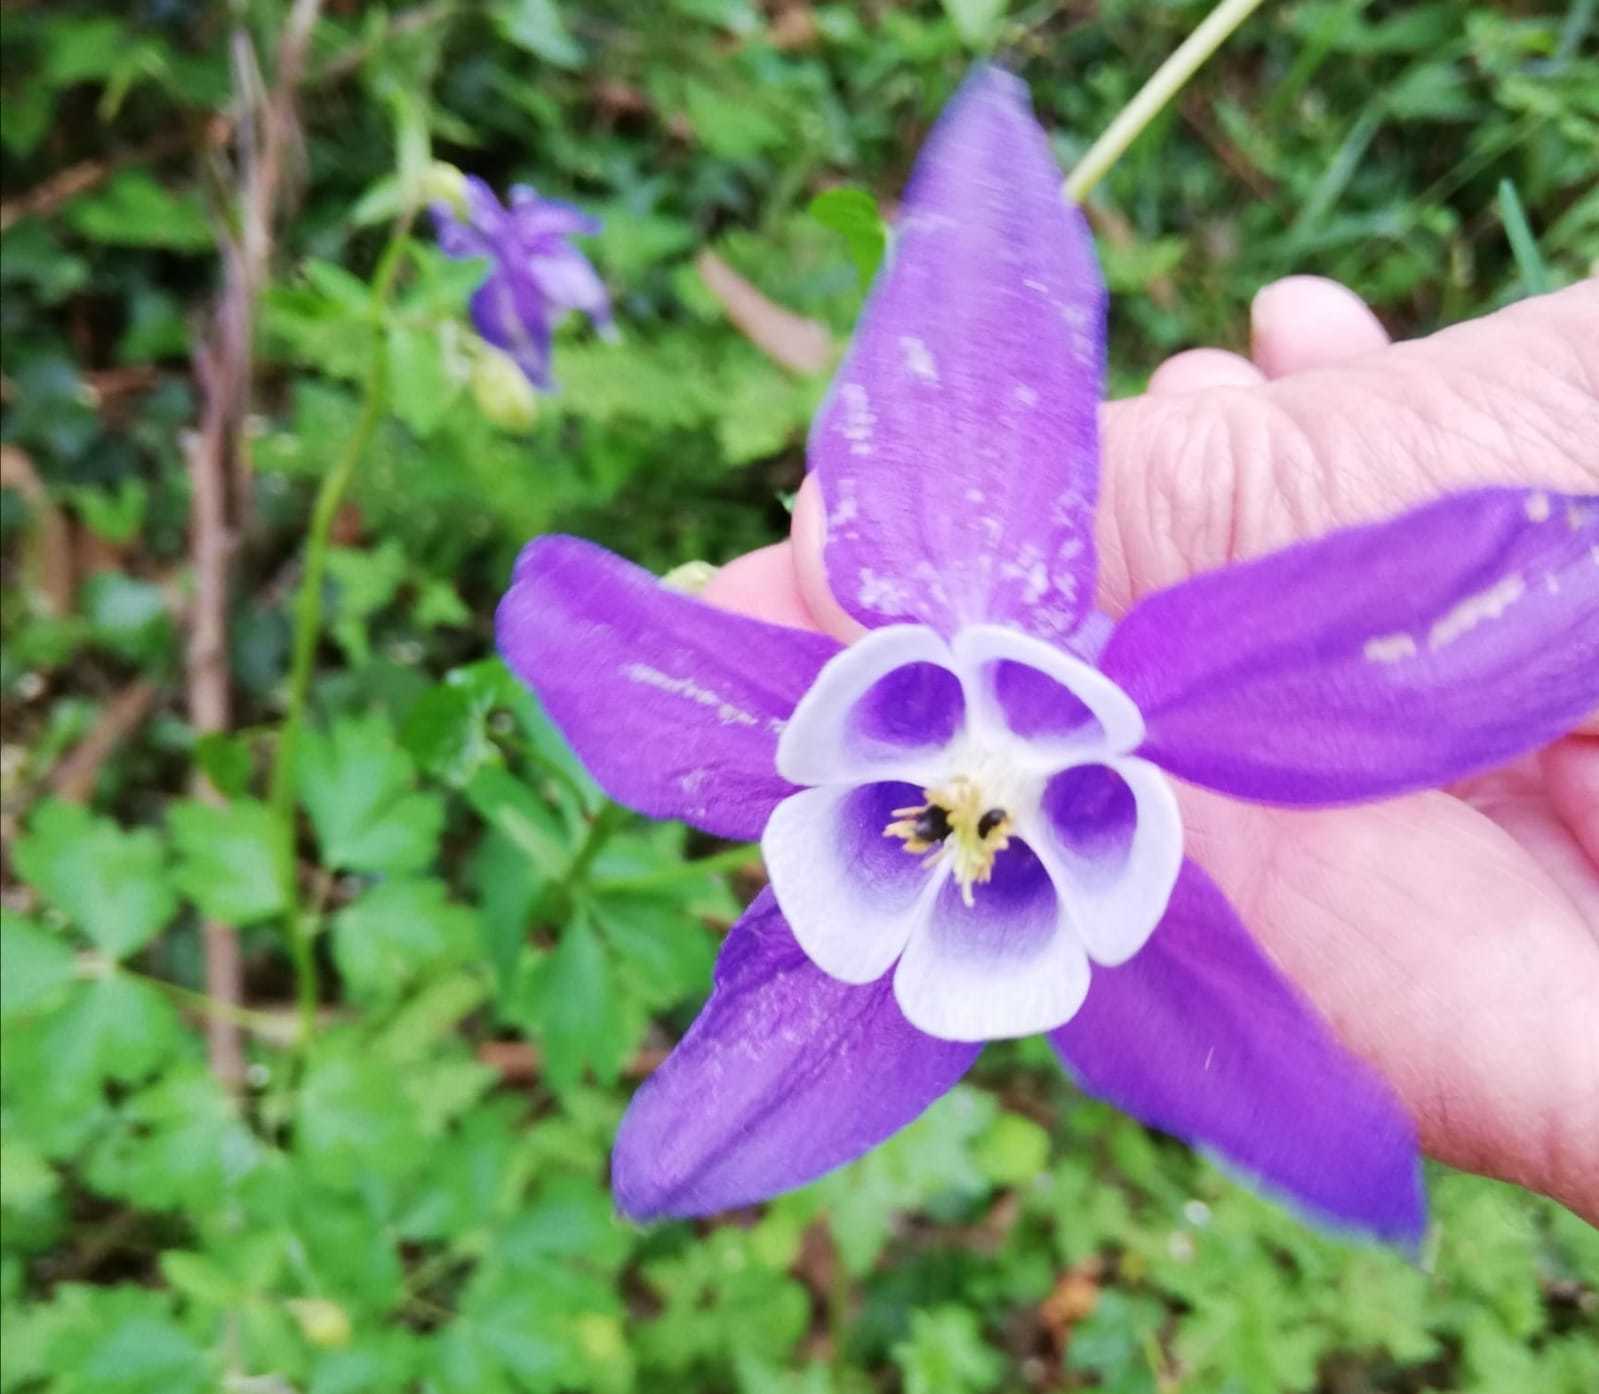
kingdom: Plantae
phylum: Tracheophyta
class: Magnoliopsida
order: Ranunculales
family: Ranunculaceae
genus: Aquilegia
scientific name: Aquilegia vulgaris
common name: Columbine
